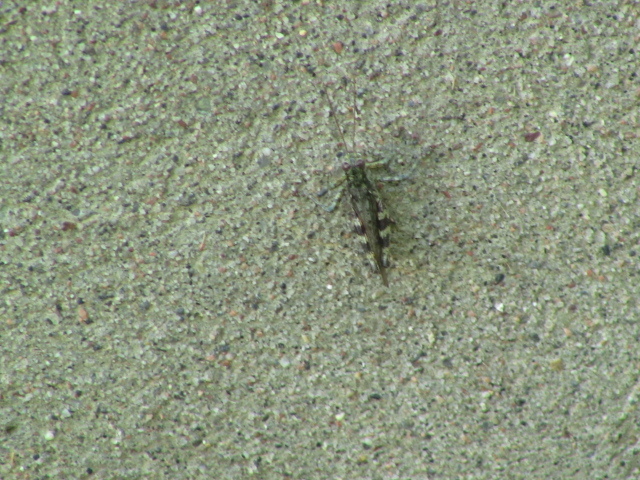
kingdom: Animalia
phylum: Arthropoda
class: Insecta
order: Orthoptera
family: Acrididae
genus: Melanoplus
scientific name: Melanoplus punctulatus
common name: Pine-tree spur-throat grasshopper
